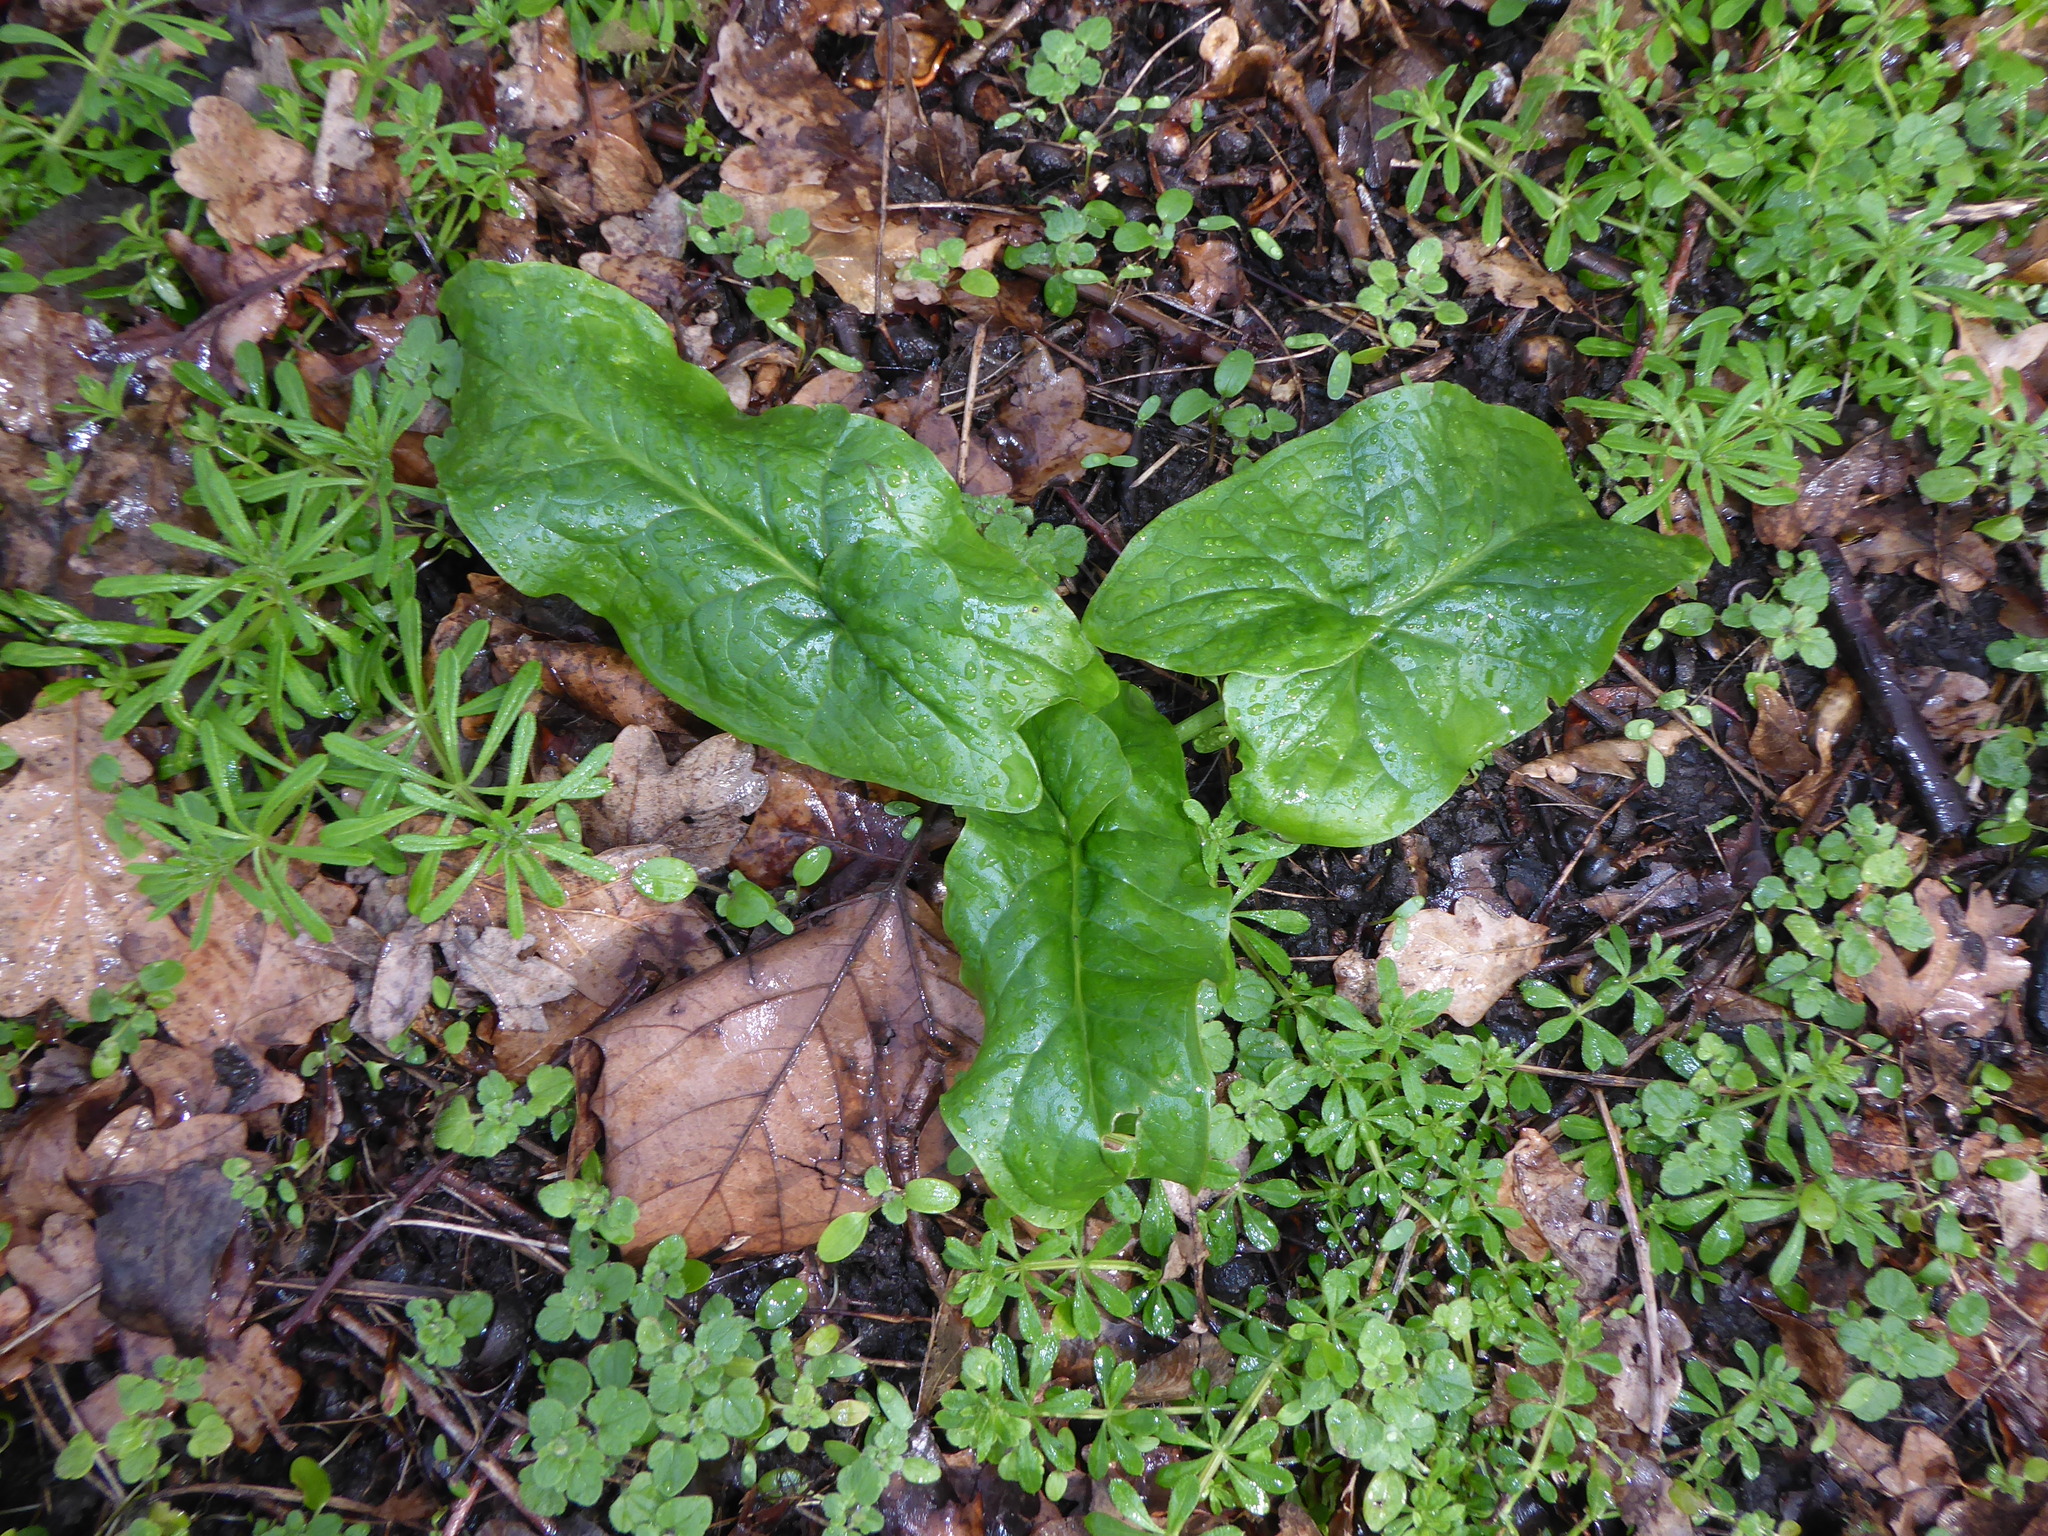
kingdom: Plantae
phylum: Tracheophyta
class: Liliopsida
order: Alismatales
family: Araceae
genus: Arum
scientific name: Arum maculatum
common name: Lords-and-ladies
